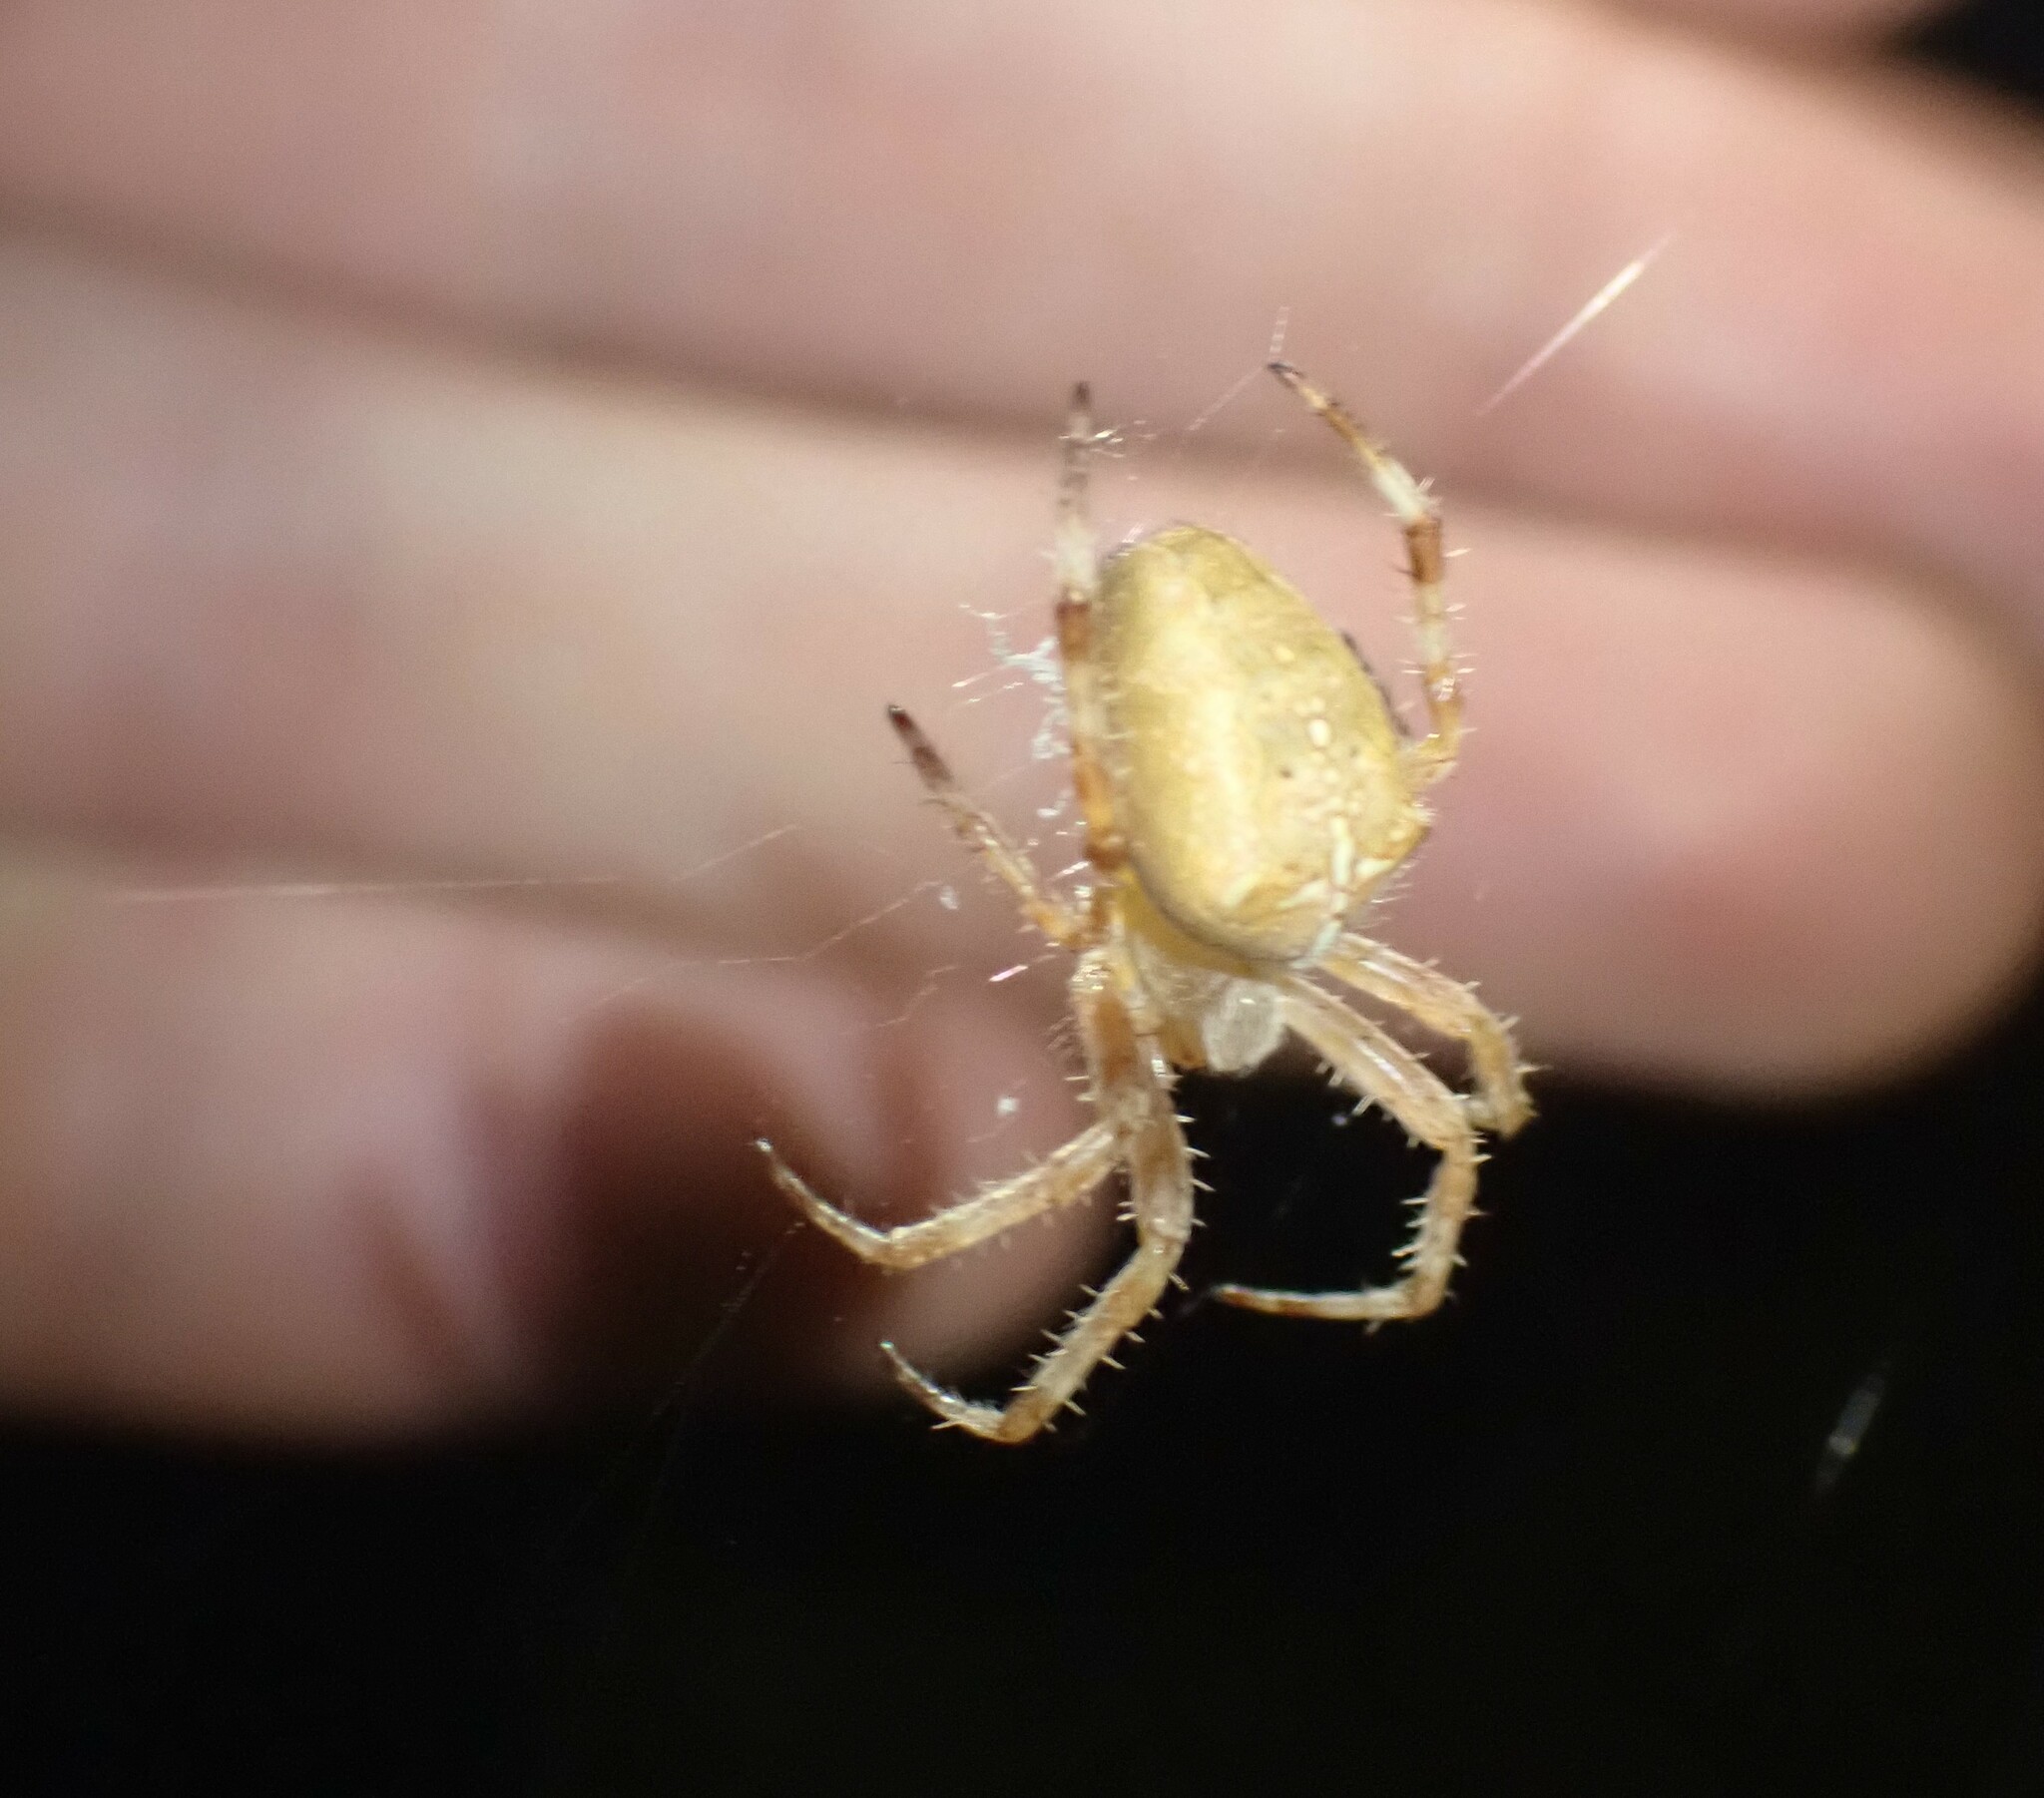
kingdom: Animalia
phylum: Arthropoda
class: Arachnida
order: Araneae
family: Araneidae
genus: Araneus
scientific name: Araneus diadematus
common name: Cross orbweaver
